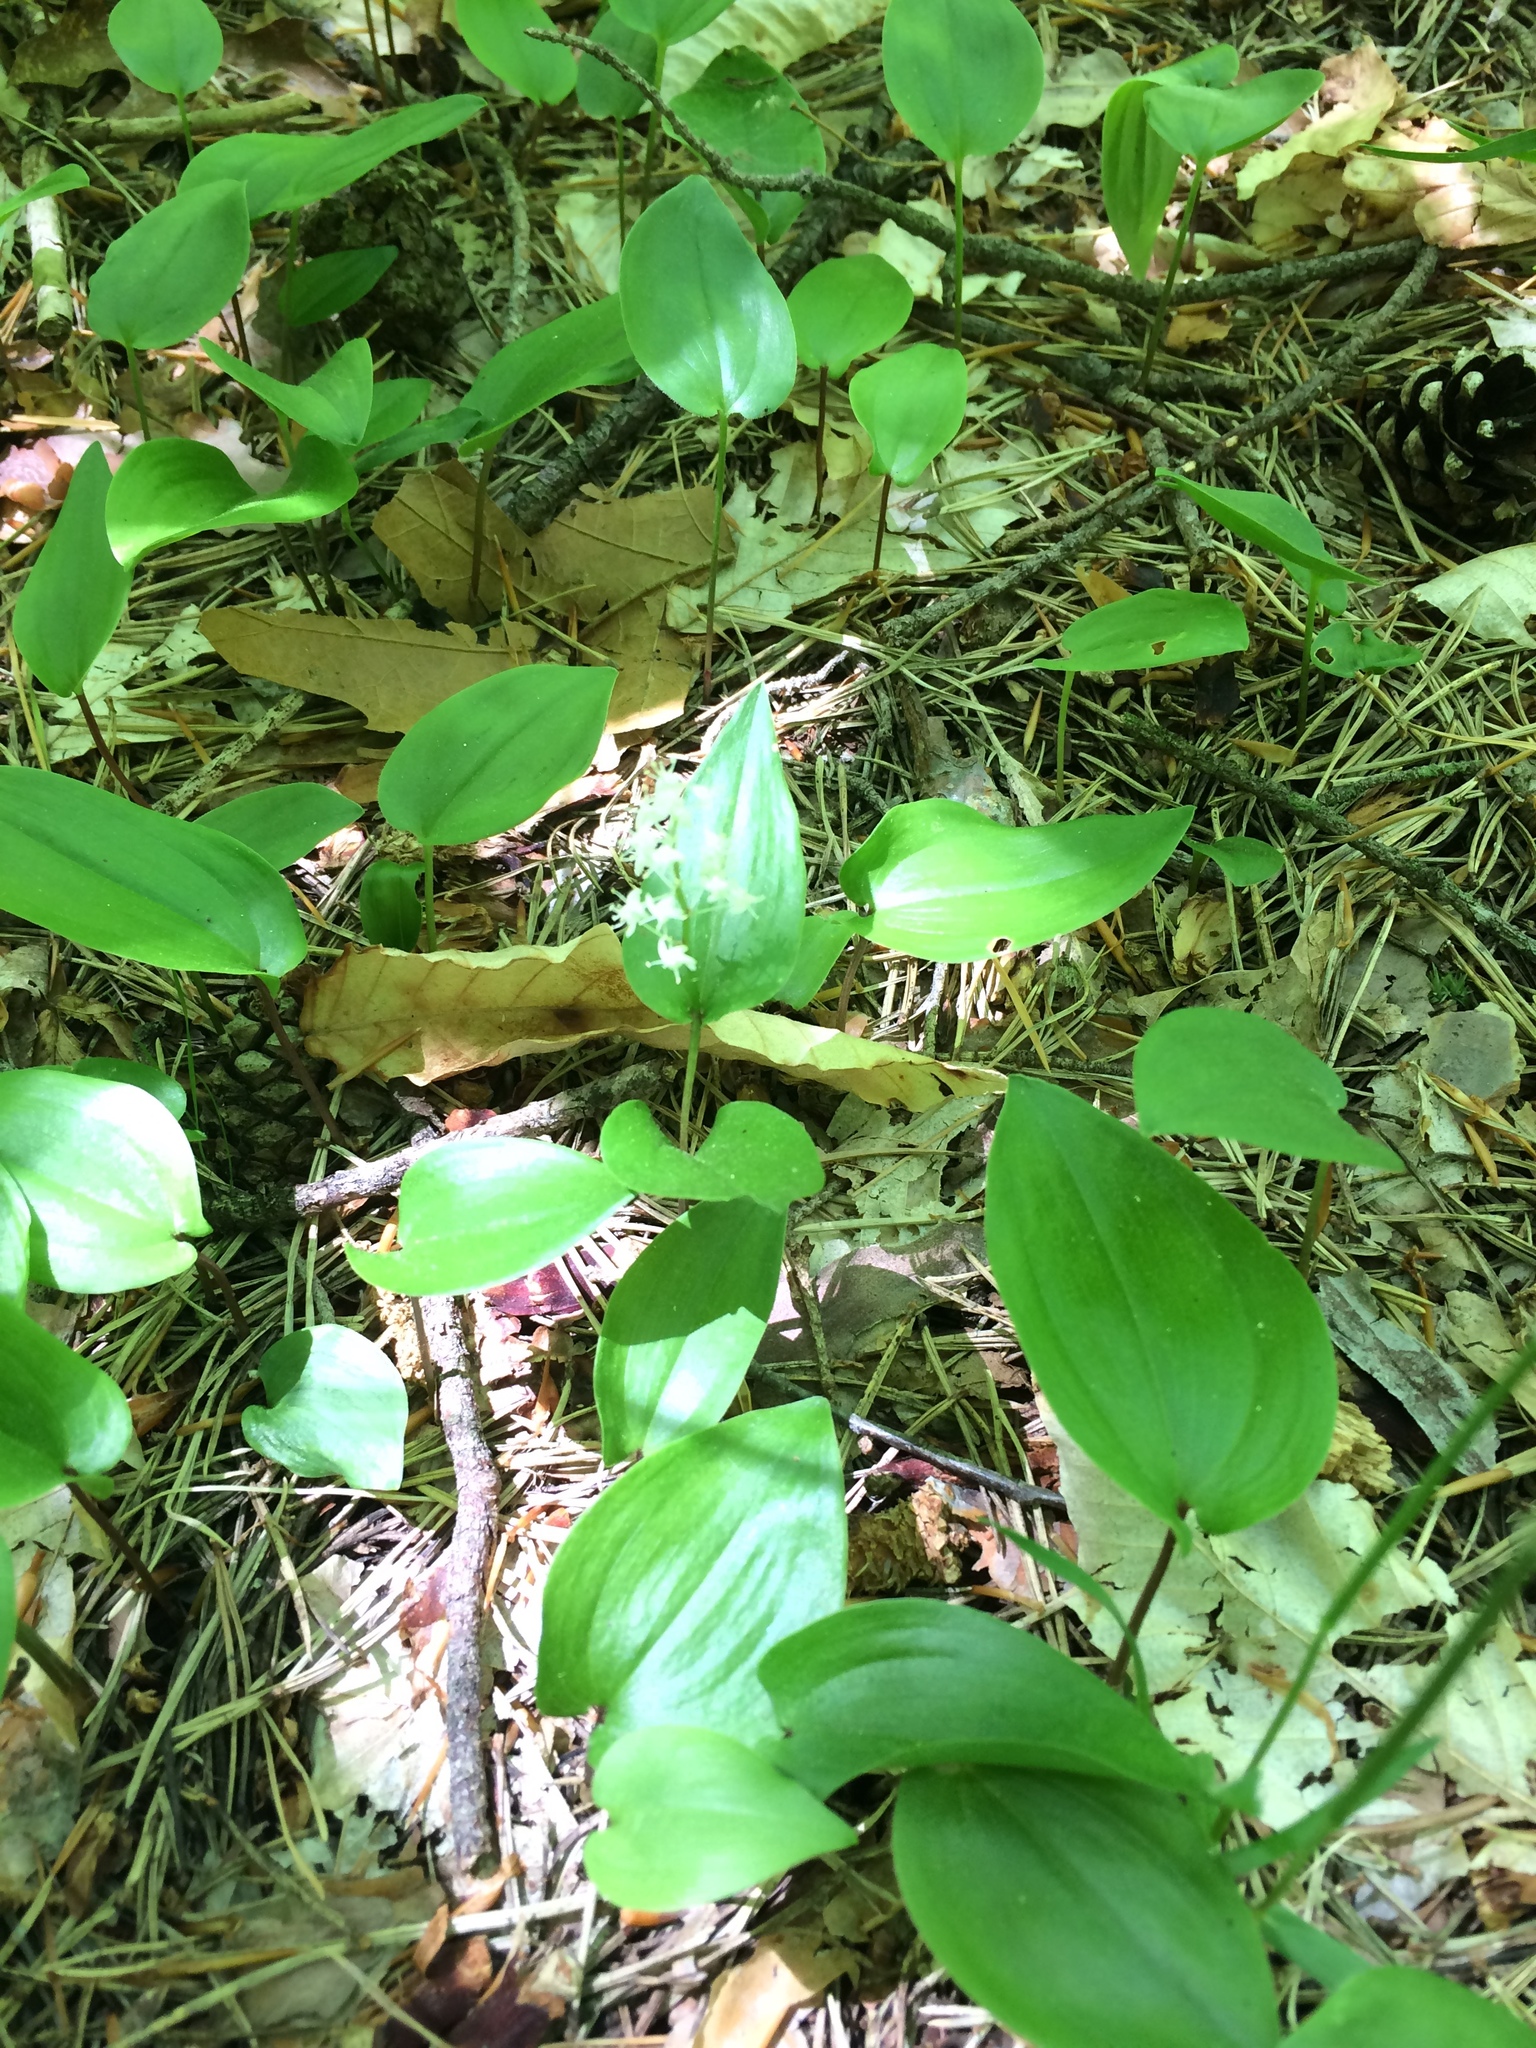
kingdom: Plantae
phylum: Tracheophyta
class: Liliopsida
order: Asparagales
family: Asparagaceae
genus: Maianthemum
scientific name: Maianthemum canadense
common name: False lily-of-the-valley
